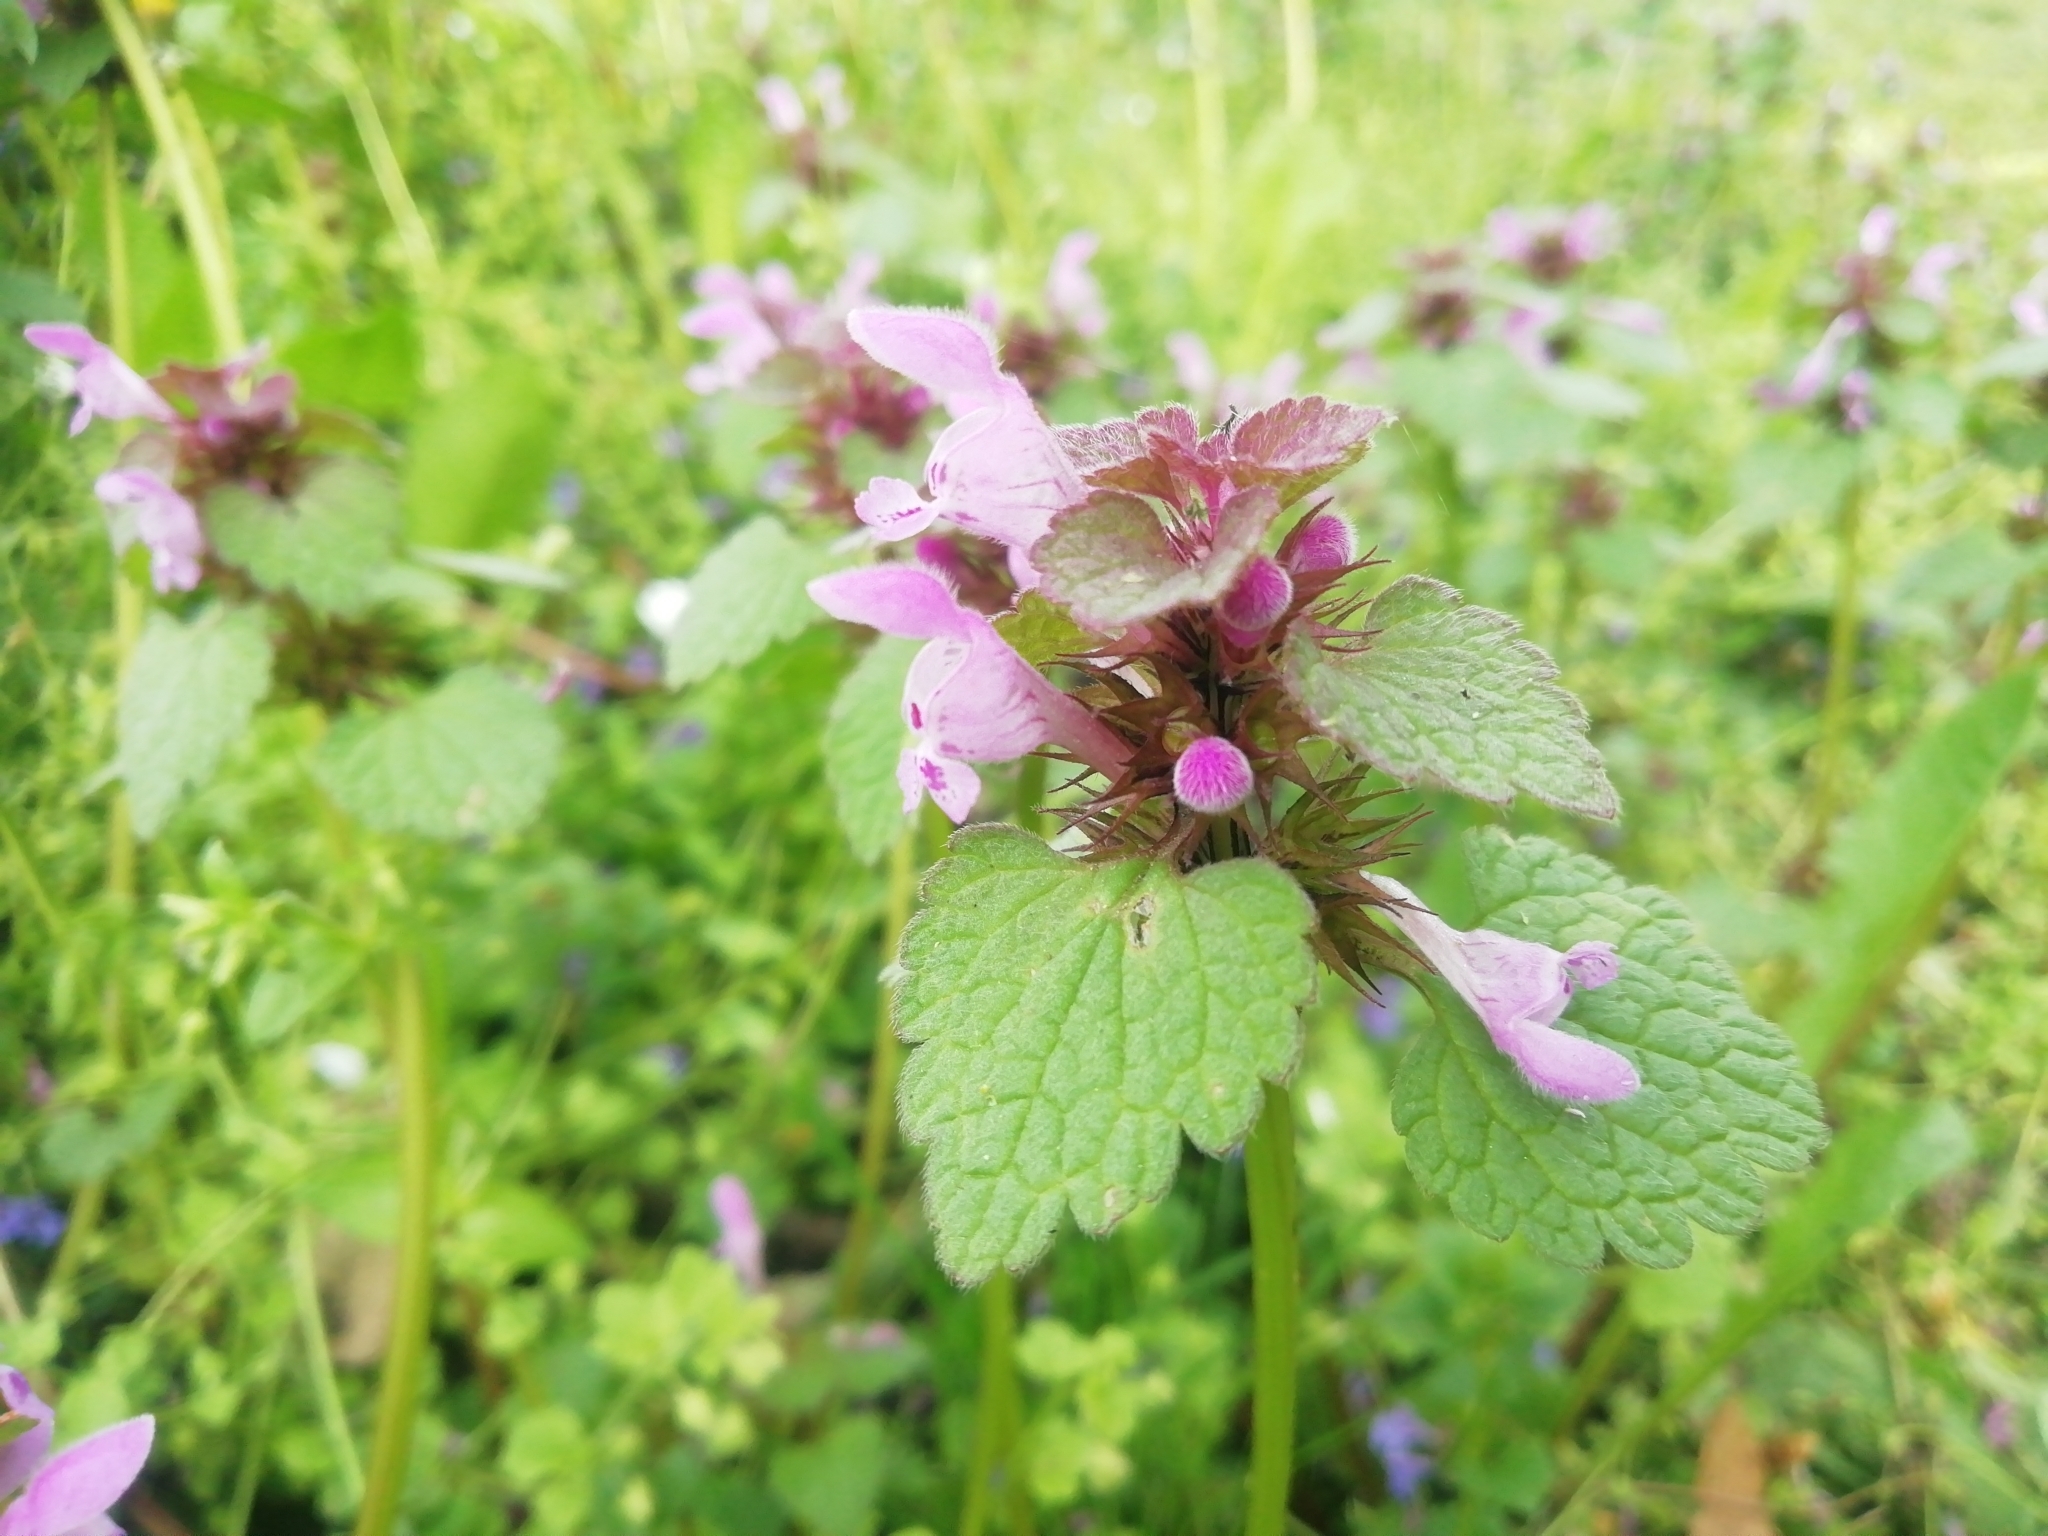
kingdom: Plantae
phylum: Tracheophyta
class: Magnoliopsida
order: Lamiales
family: Lamiaceae
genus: Lamium
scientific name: Lamium purpureum
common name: Red dead-nettle
